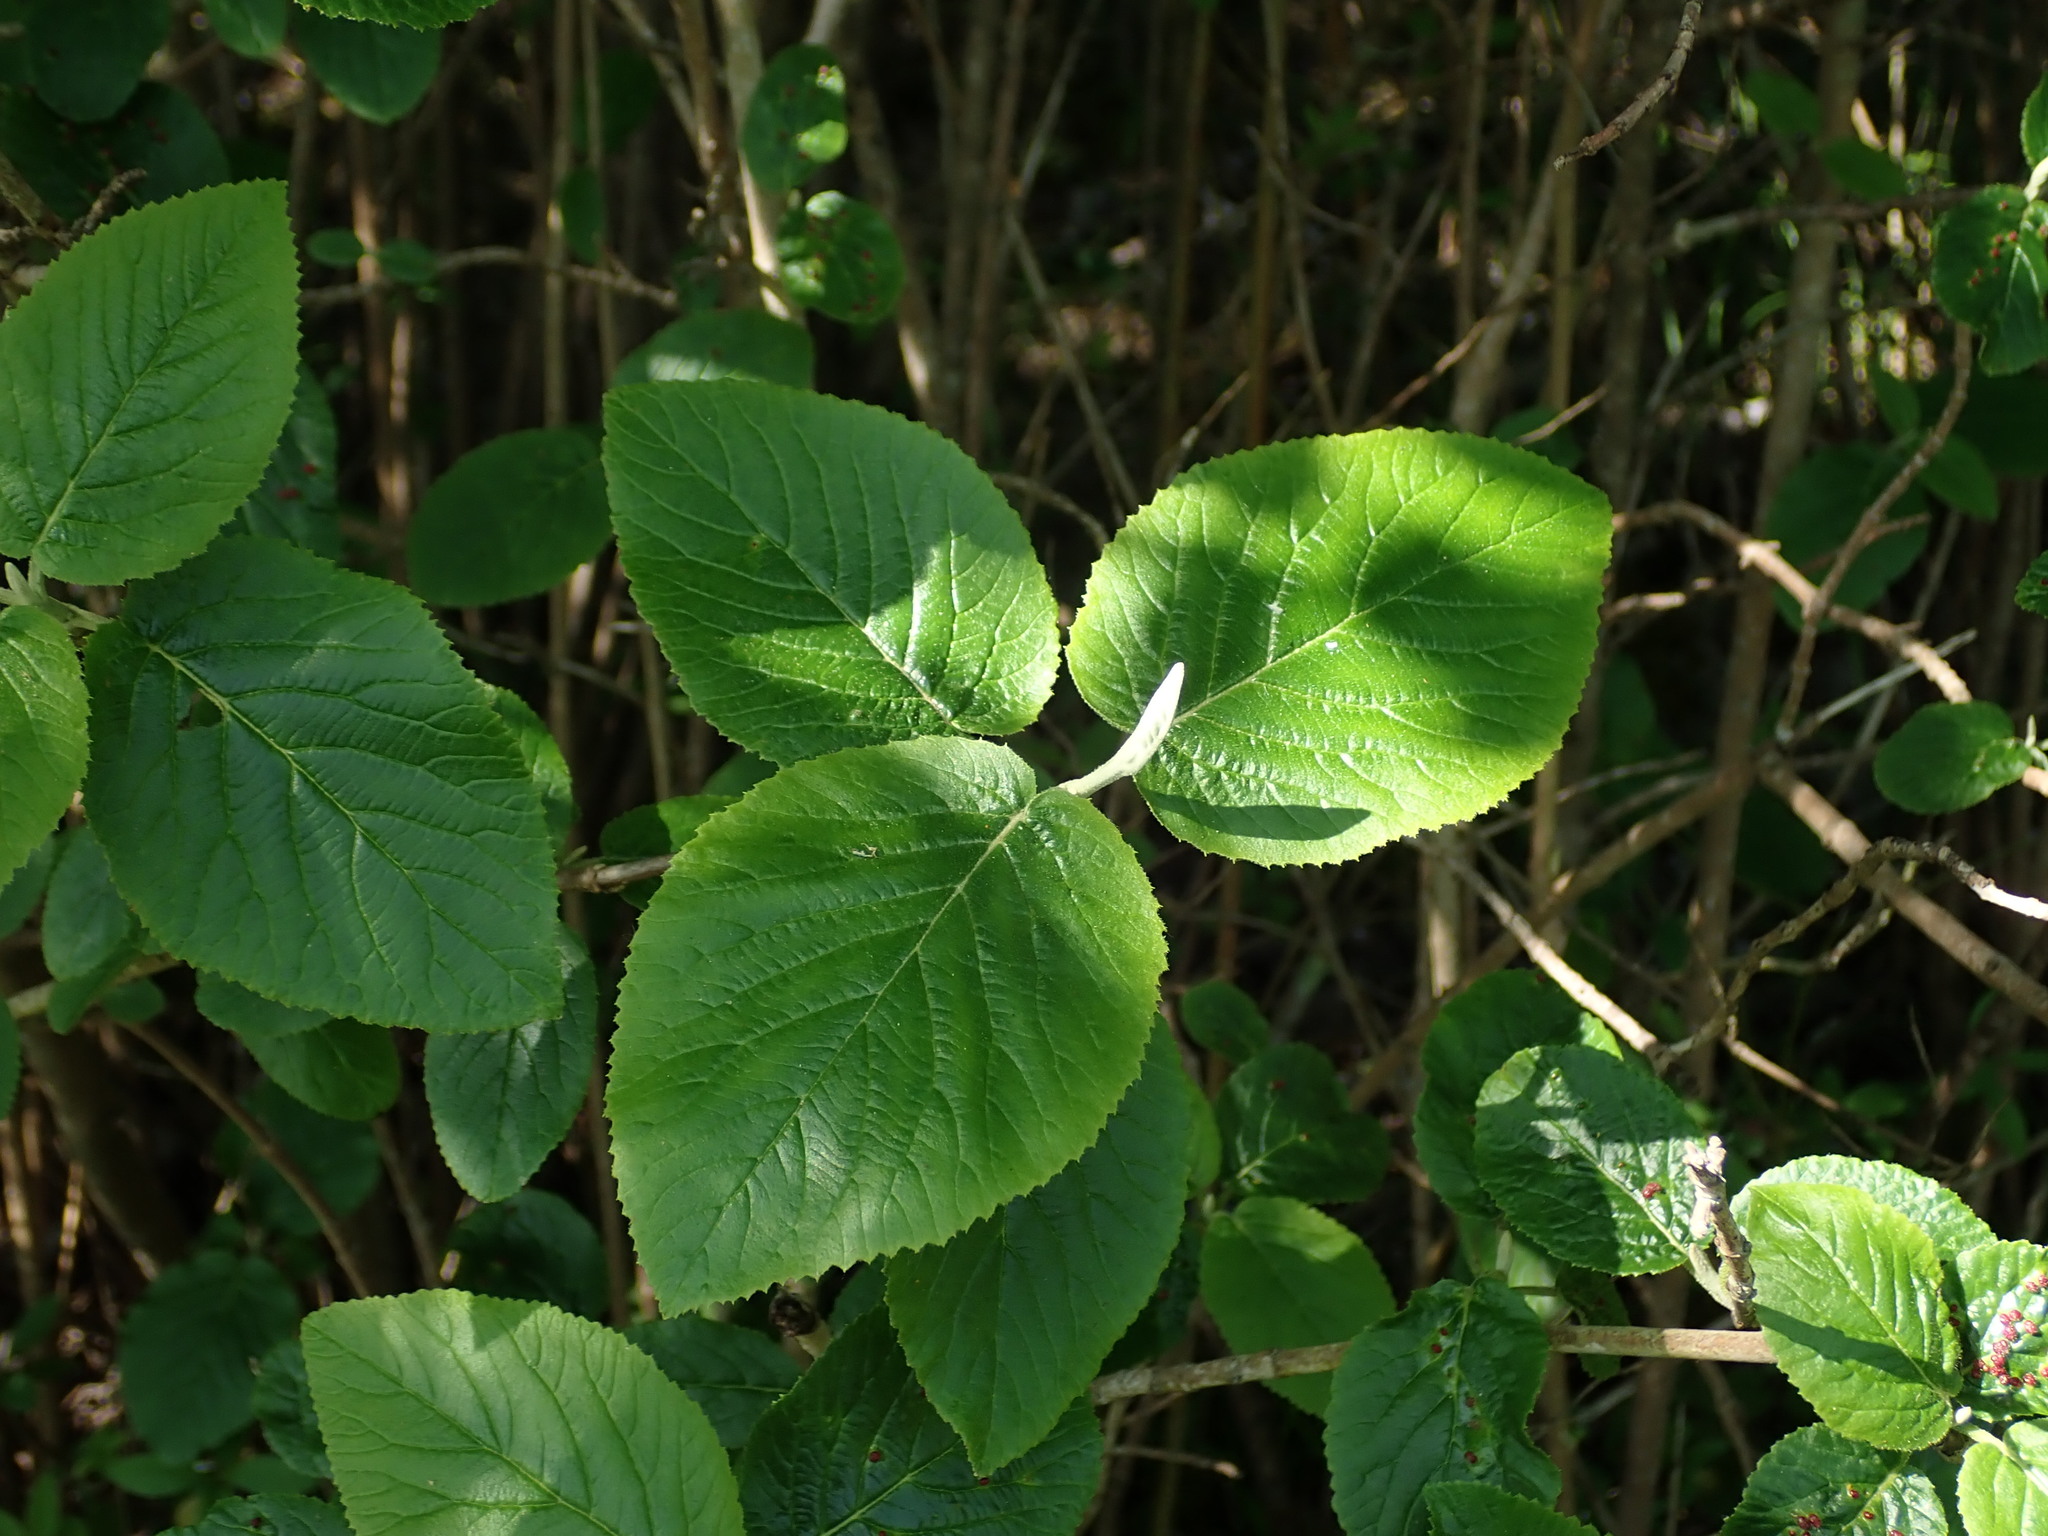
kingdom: Plantae
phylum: Tracheophyta
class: Magnoliopsida
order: Dipsacales
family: Viburnaceae
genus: Viburnum
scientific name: Viburnum lantana
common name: Wayfaring tree
